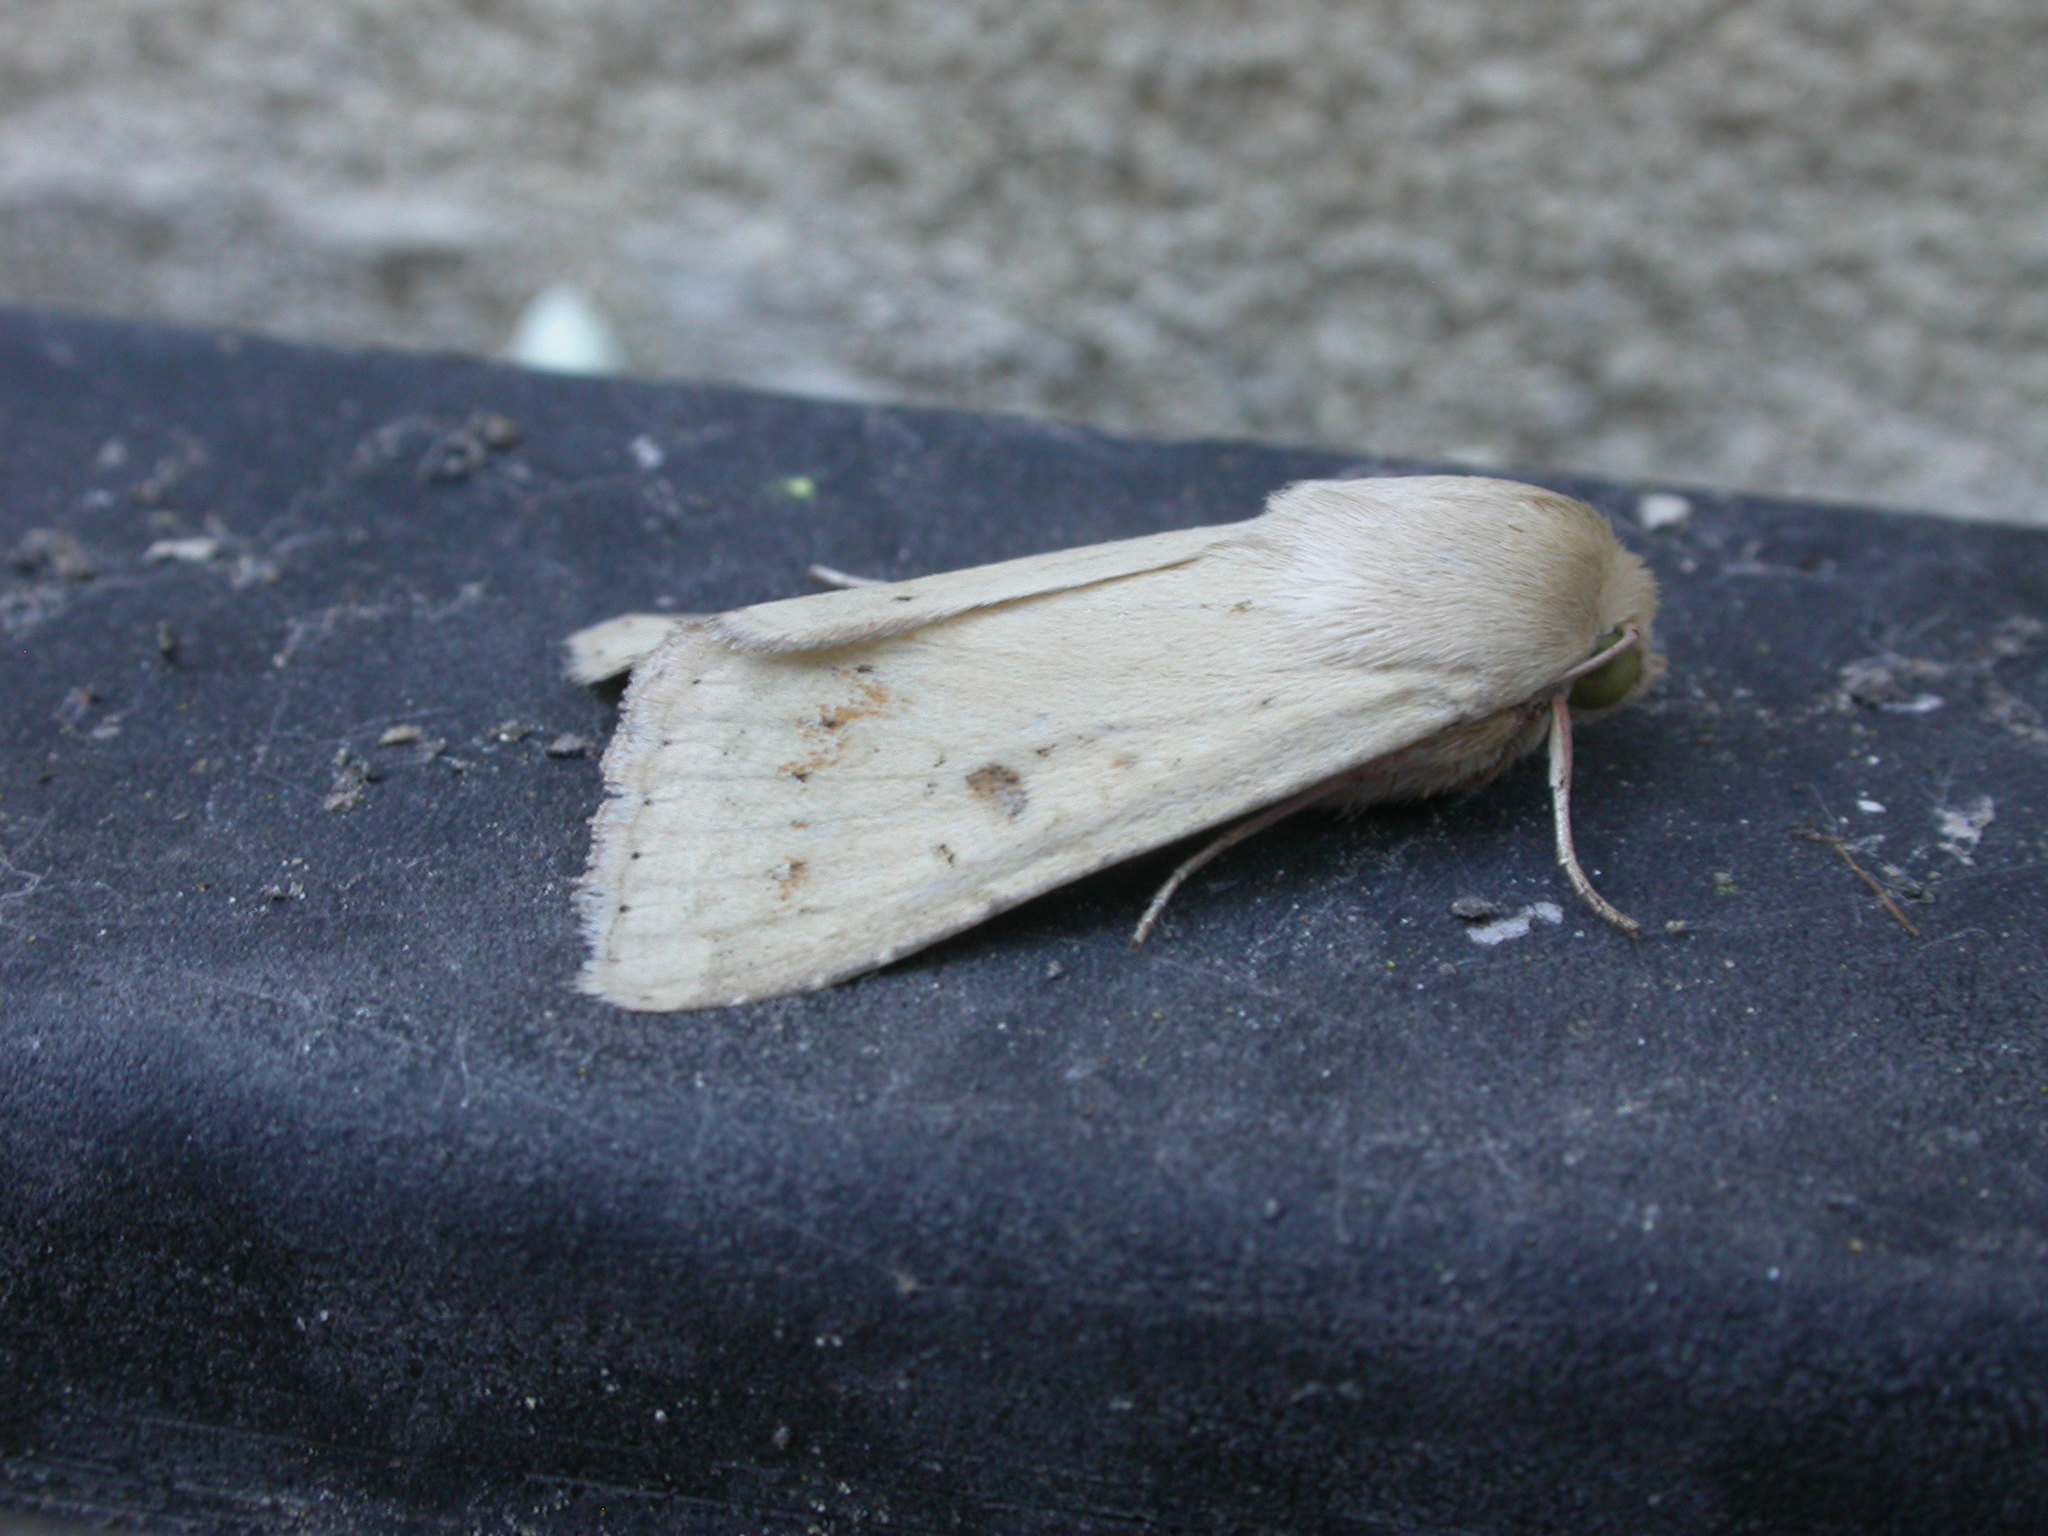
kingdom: Animalia
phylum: Arthropoda
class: Insecta
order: Lepidoptera
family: Noctuidae
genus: Helicoverpa
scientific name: Helicoverpa punctigera
